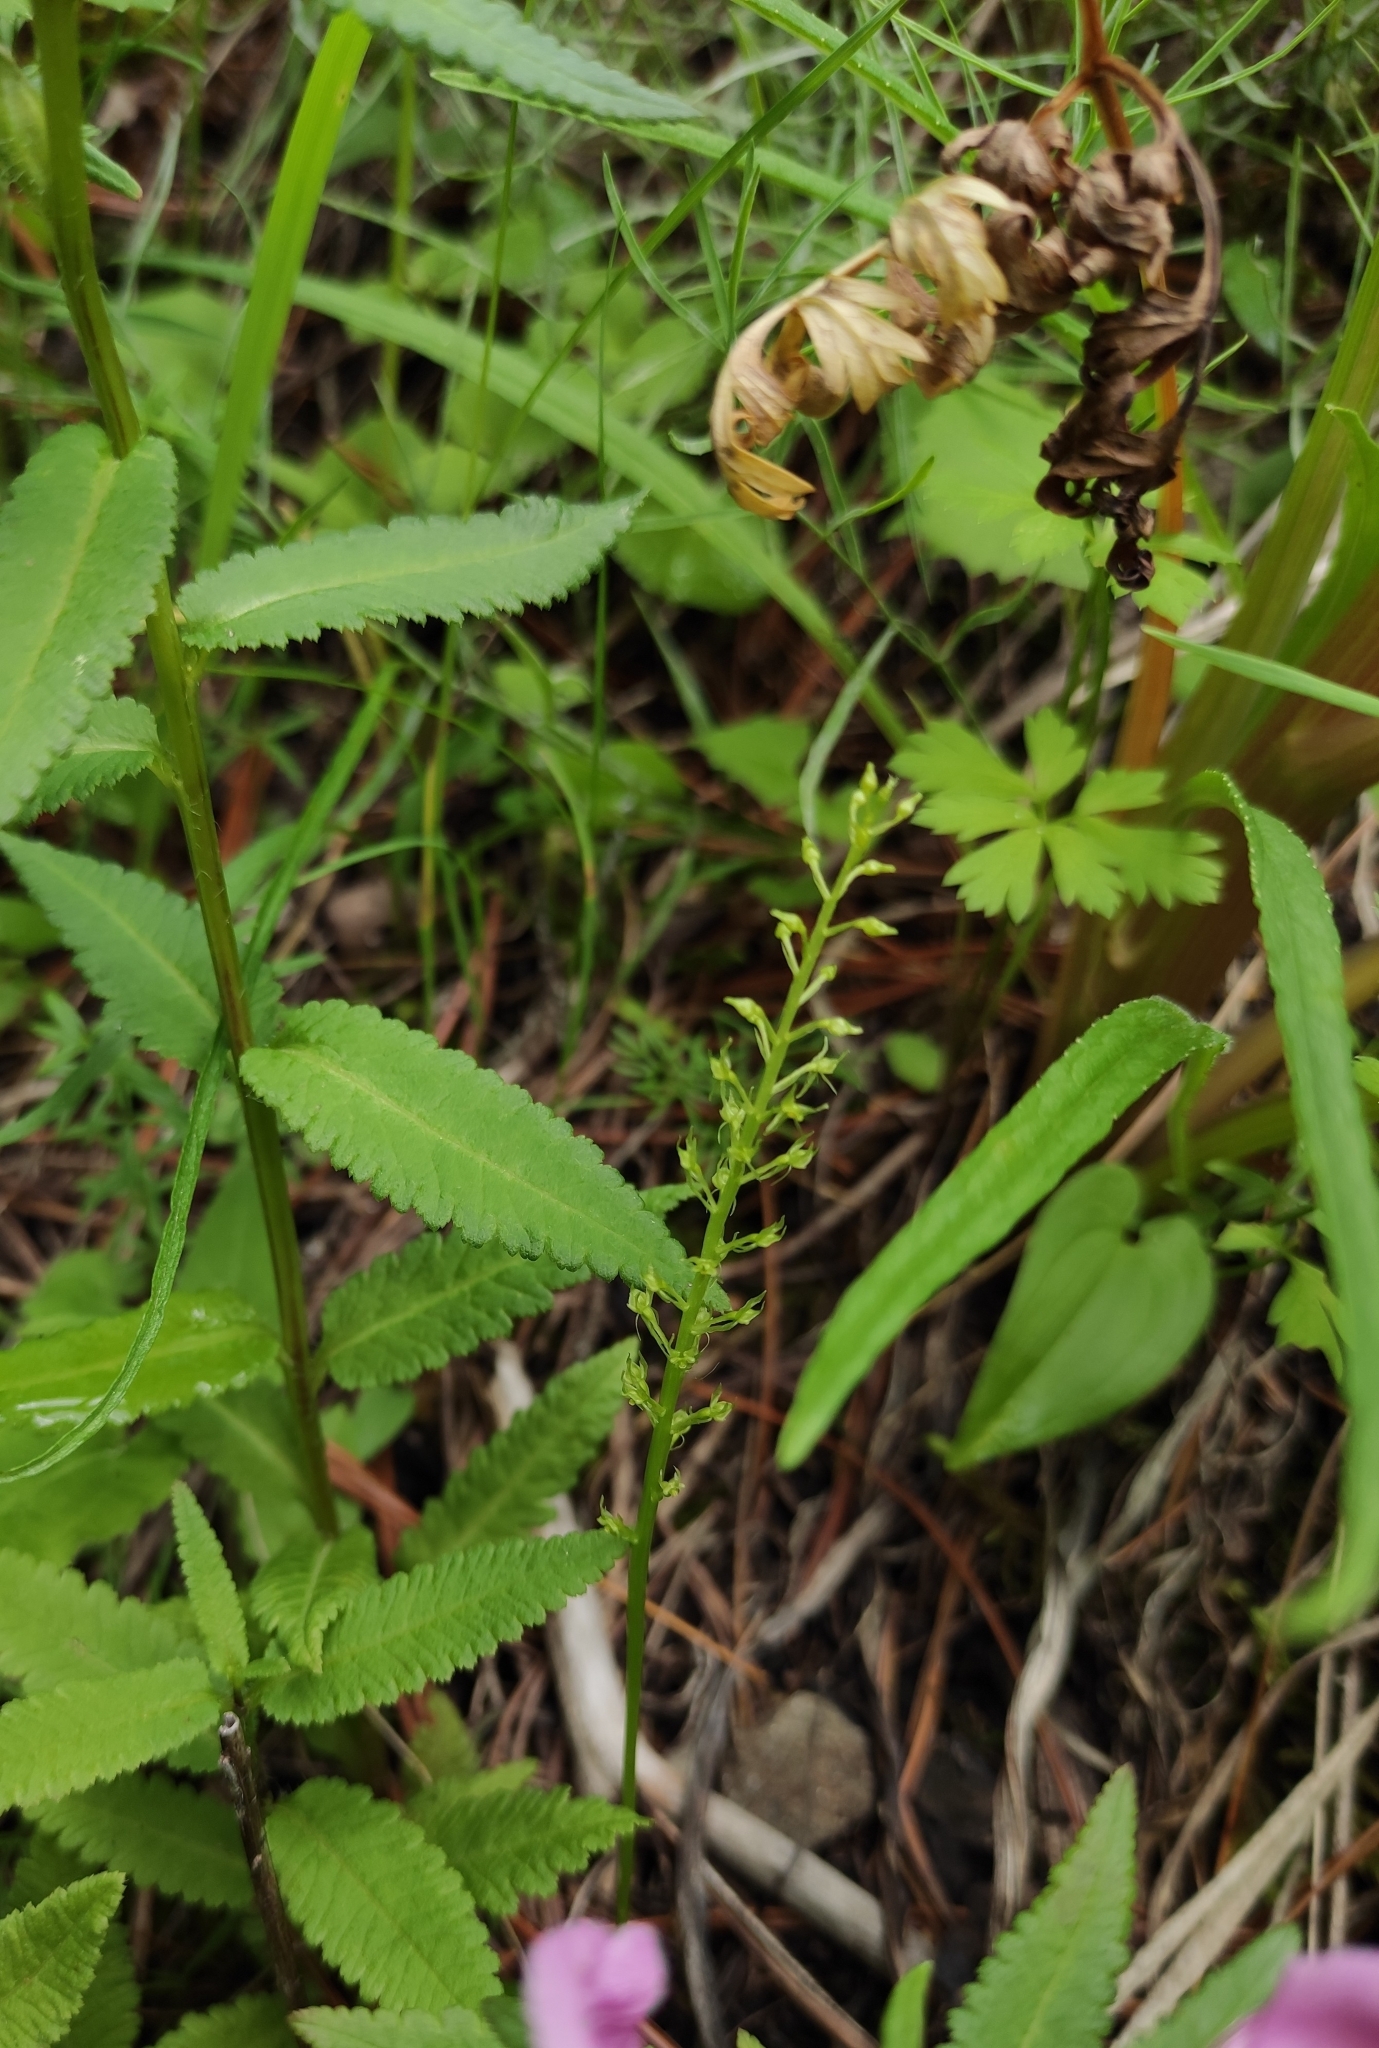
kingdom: Plantae
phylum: Tracheophyta
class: Liliopsida
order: Asparagales
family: Orchidaceae
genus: Malaxis
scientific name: Malaxis monophyllos
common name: White adder's-mouth
